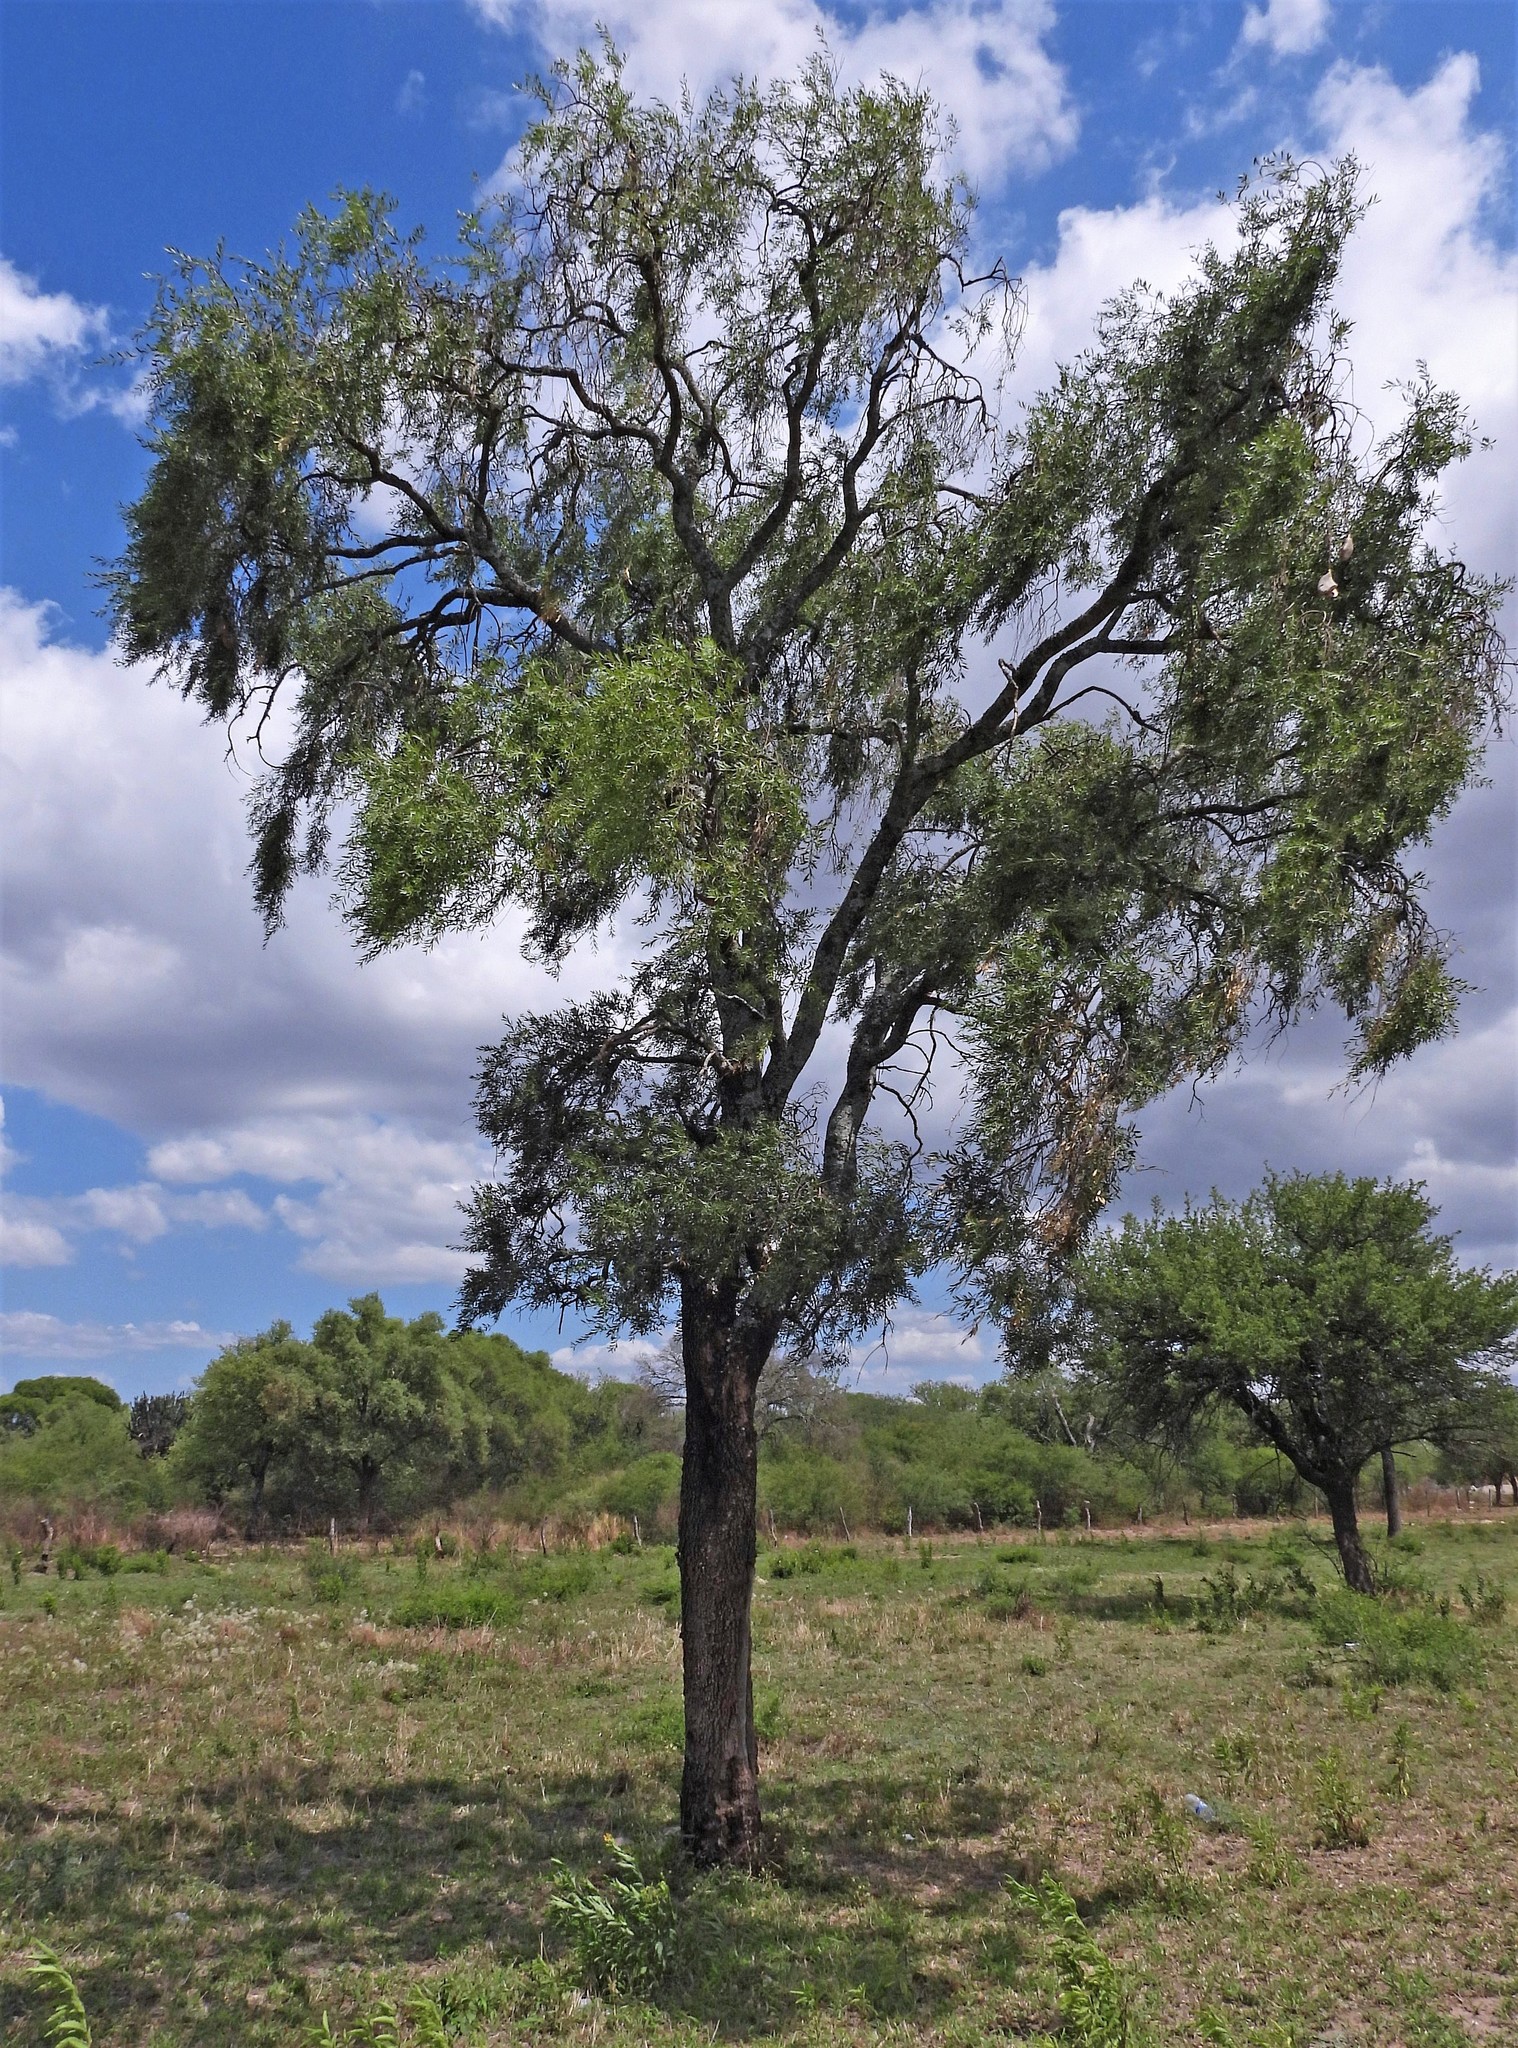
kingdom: Plantae
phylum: Tracheophyta
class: Magnoliopsida
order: Gentianales
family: Apocynaceae
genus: Aspidosperma
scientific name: Aspidosperma quebracho-blanco
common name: White quebracho
